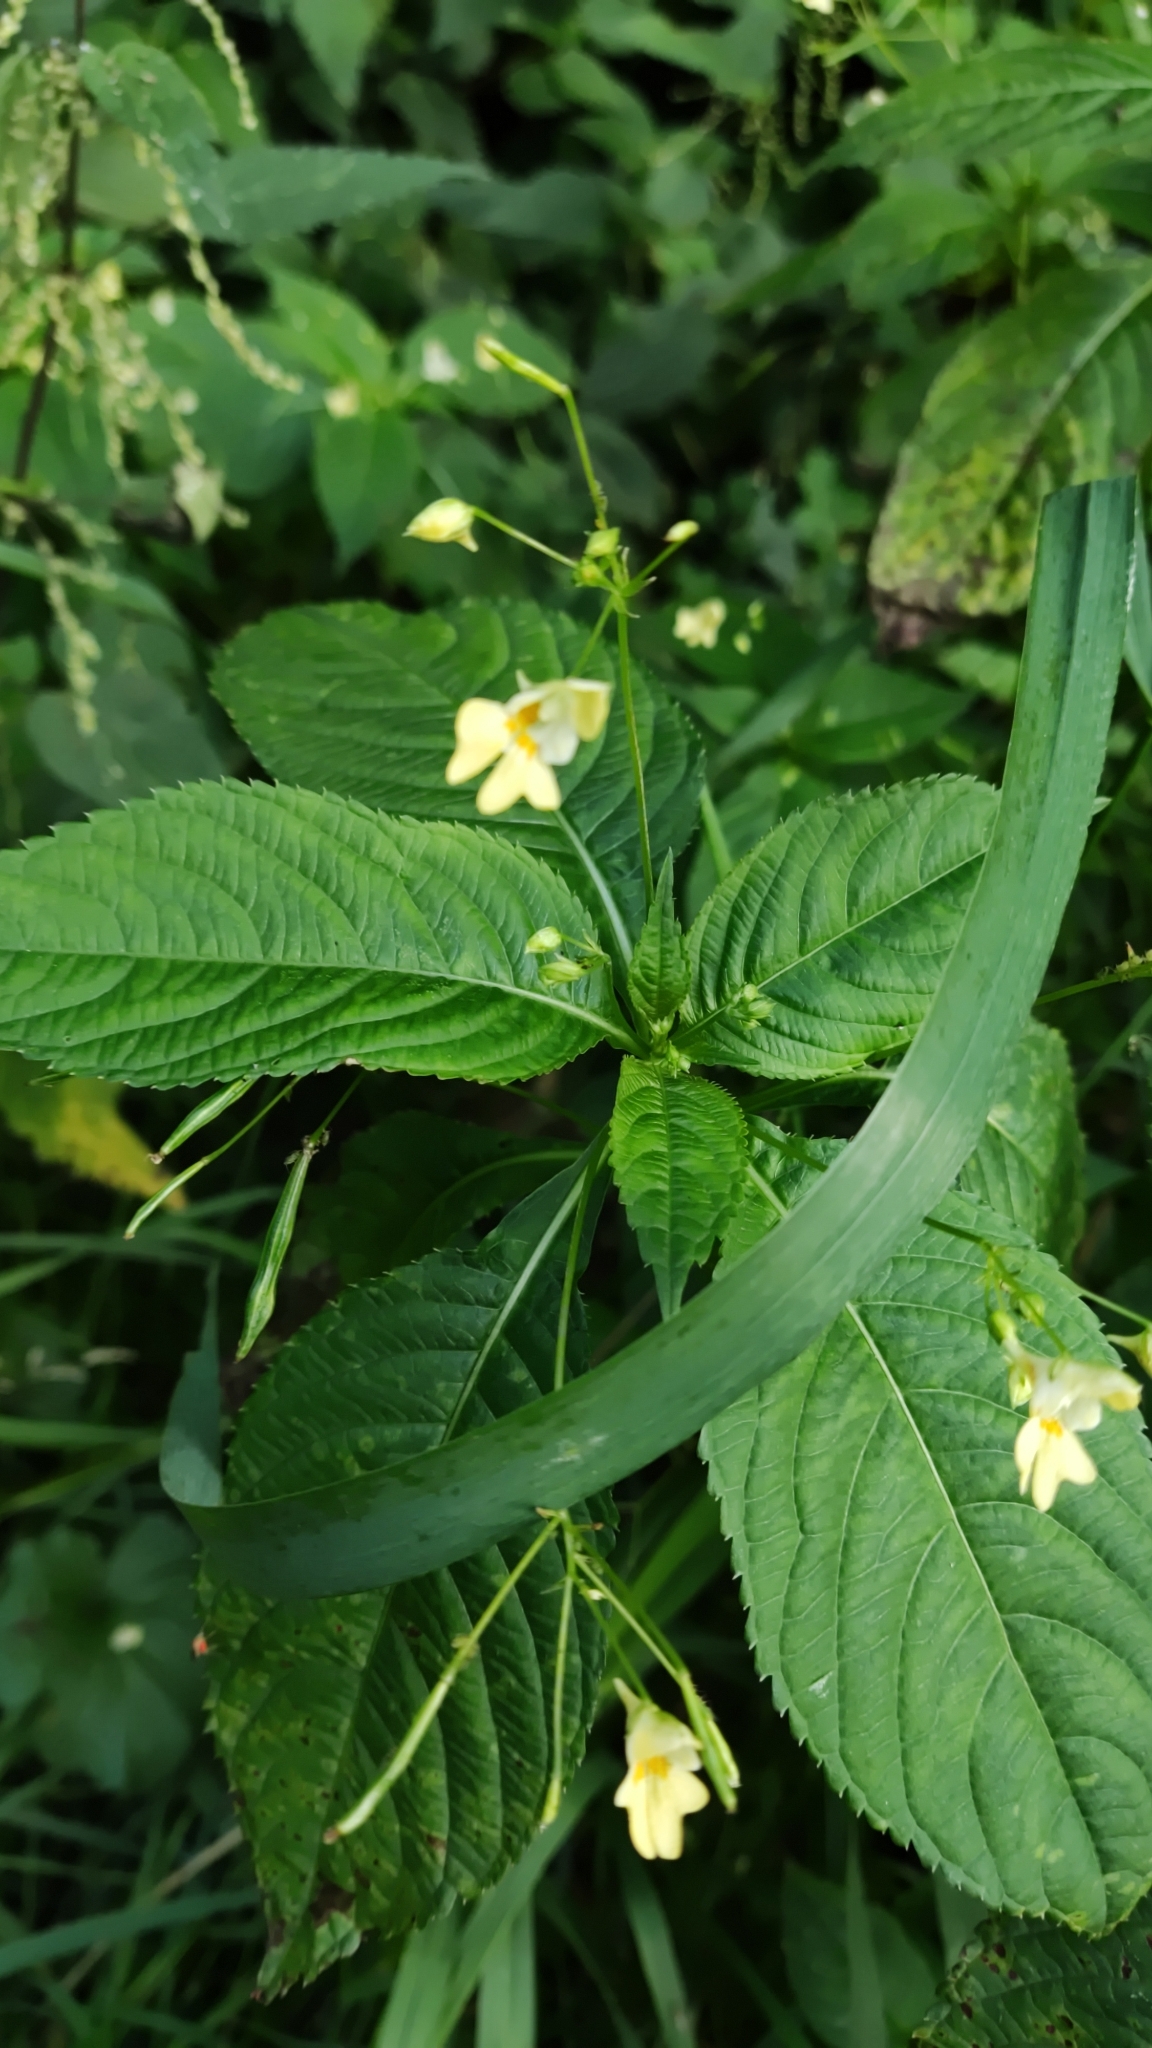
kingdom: Plantae
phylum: Tracheophyta
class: Magnoliopsida
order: Ericales
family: Balsaminaceae
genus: Impatiens
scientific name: Impatiens parviflora
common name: Small balsam
